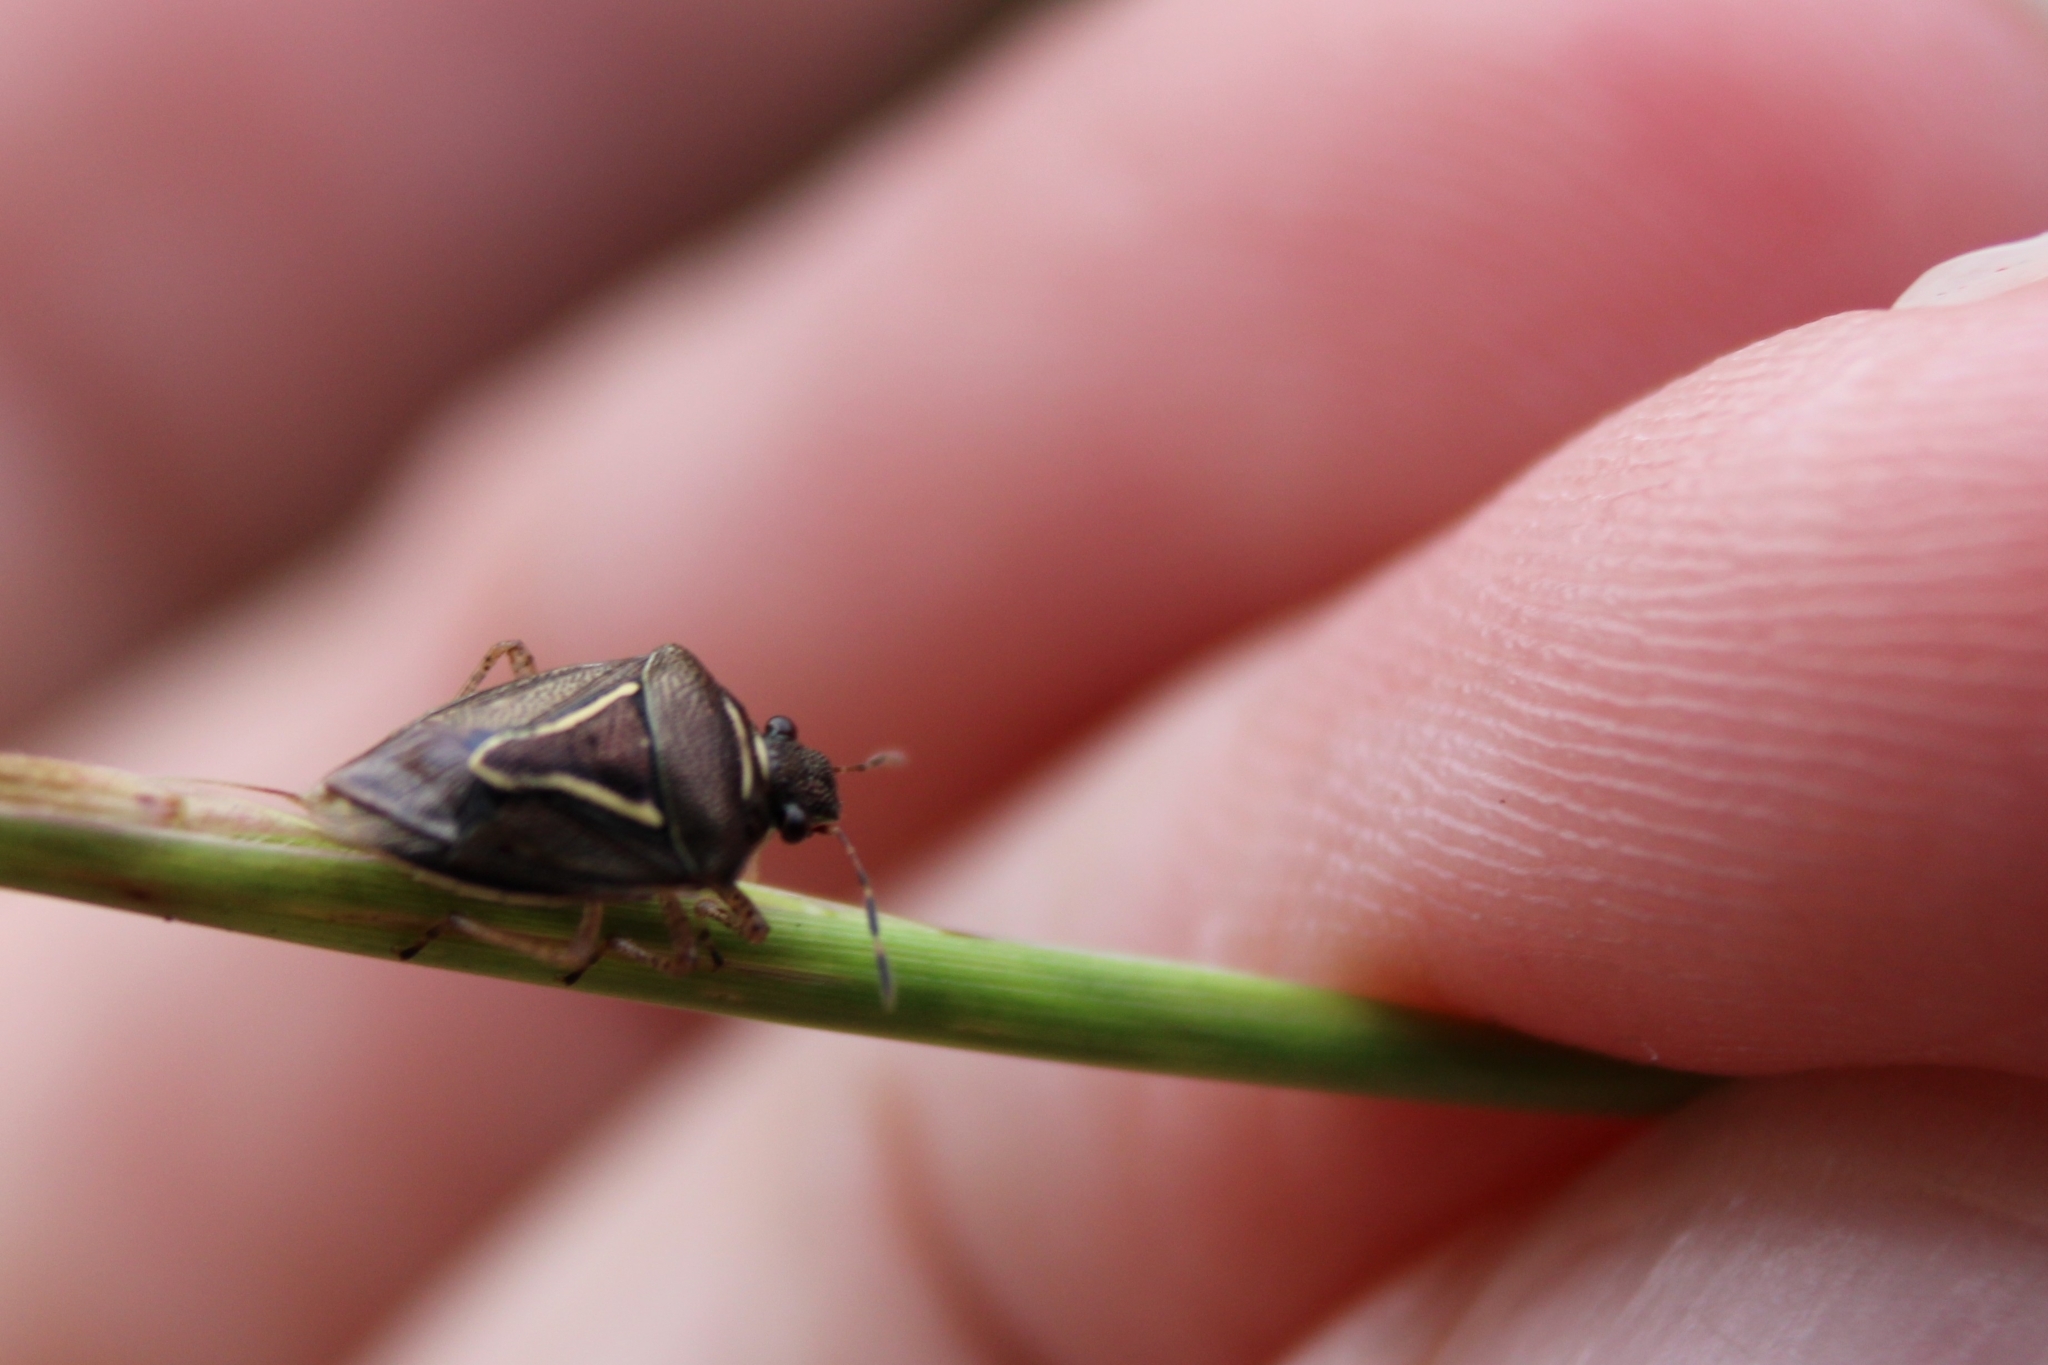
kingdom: Animalia
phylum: Arthropoda
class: Insecta
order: Hemiptera
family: Pentatomidae
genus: Mormidea
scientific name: Mormidea lugens
